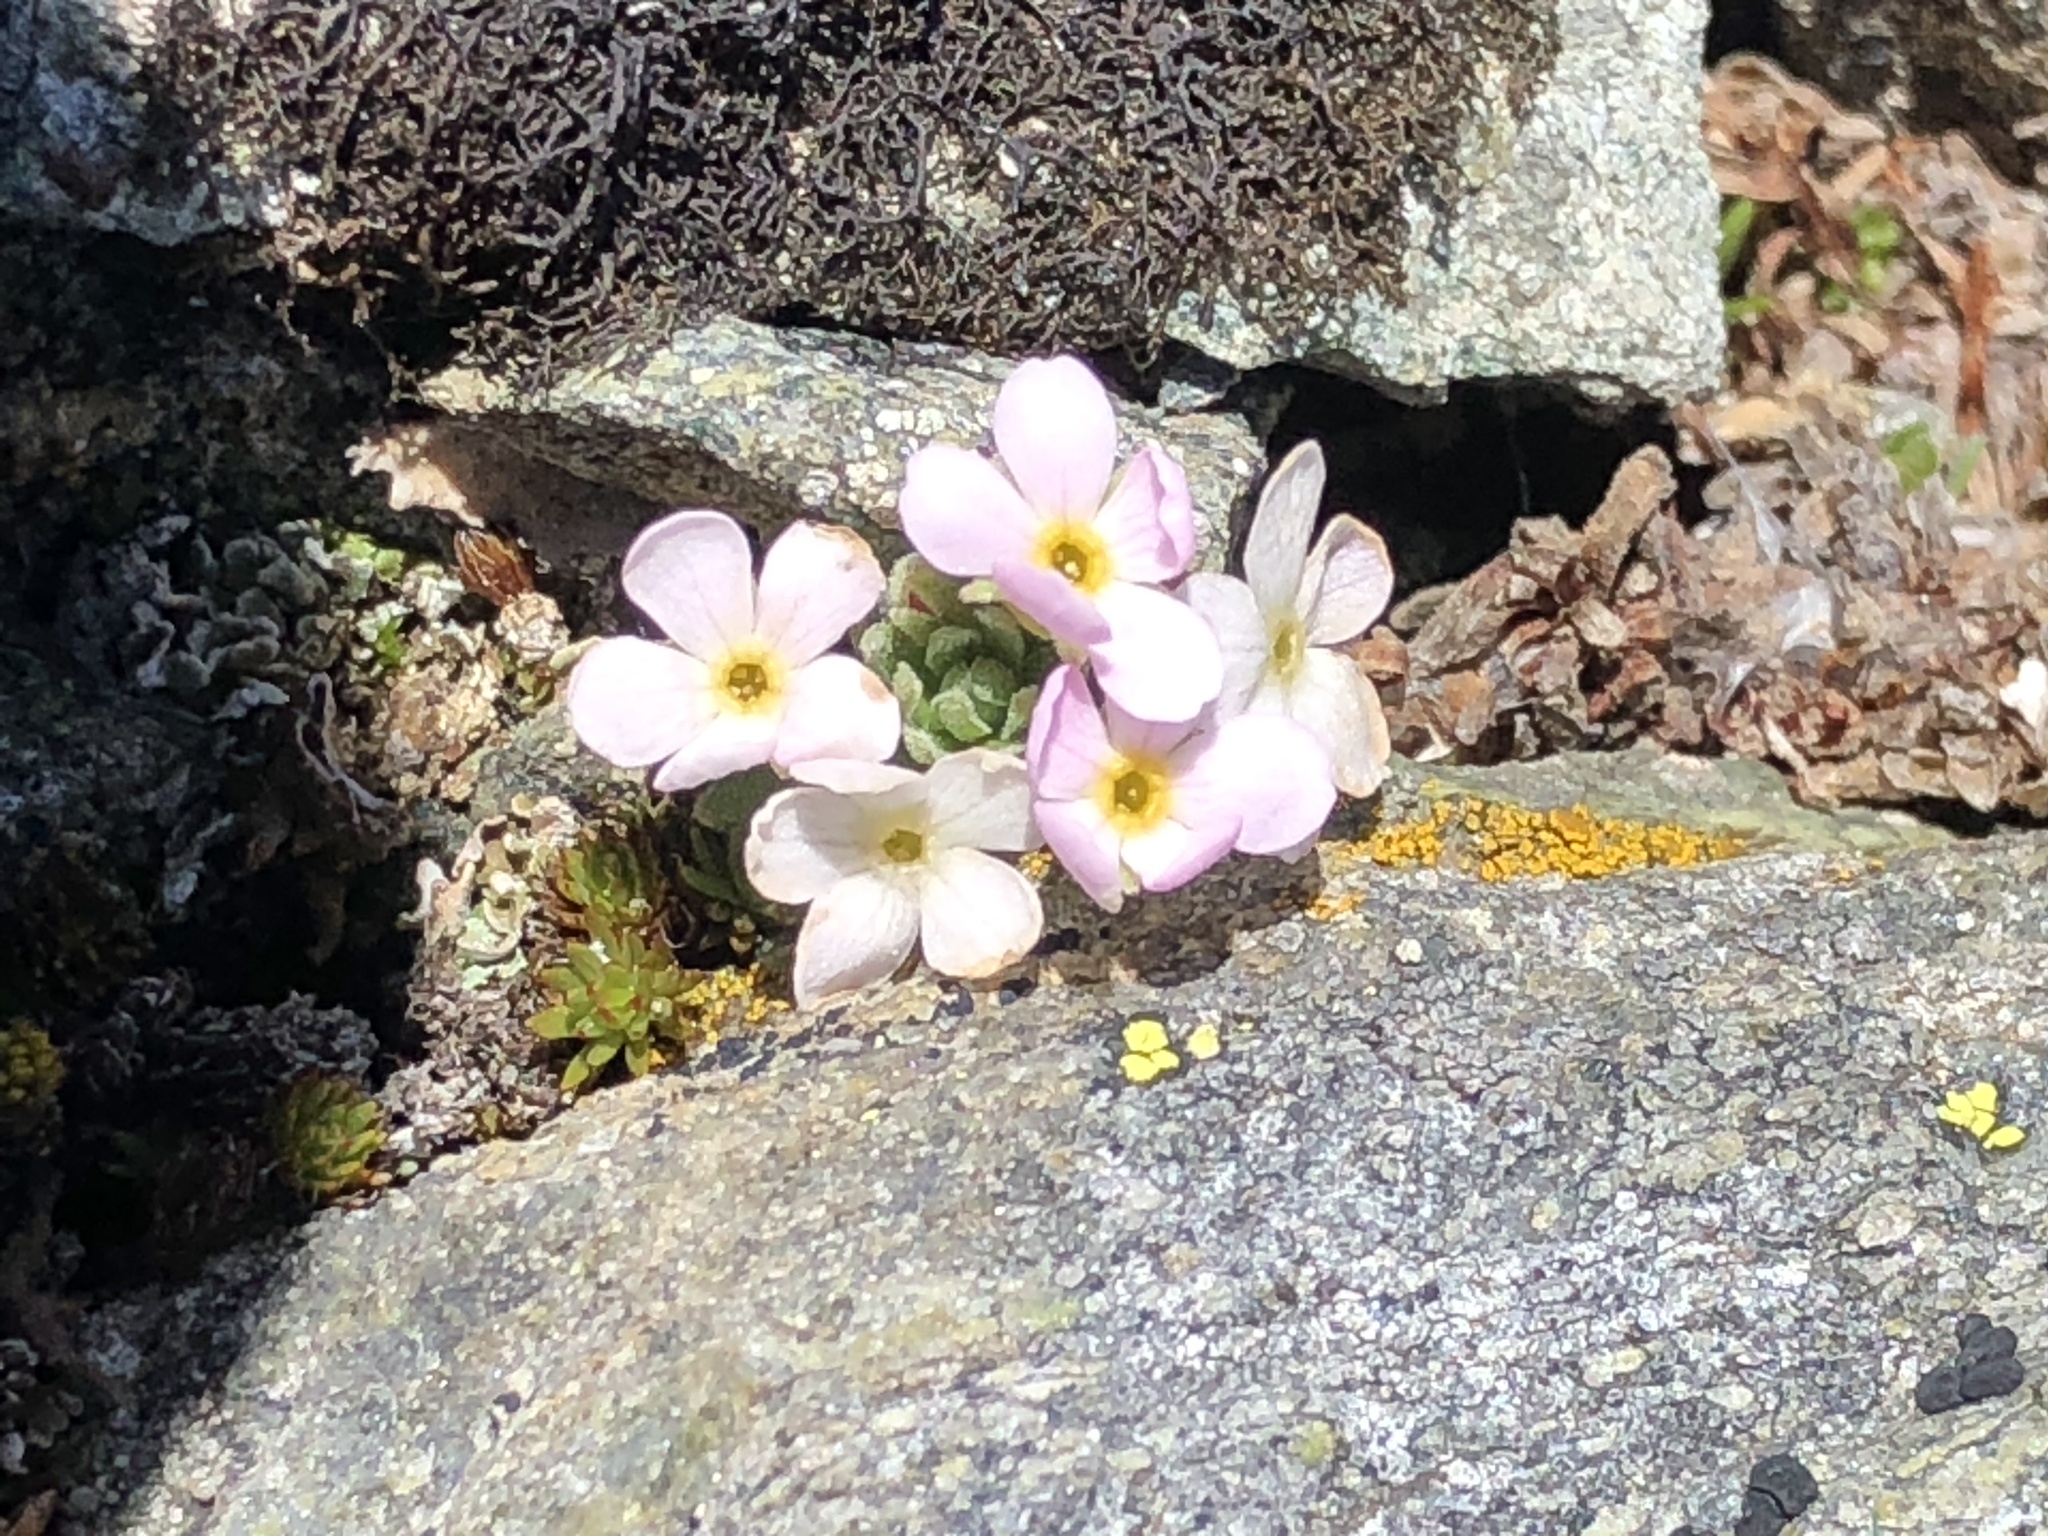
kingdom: Plantae
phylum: Tracheophyta
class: Magnoliopsida
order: Ericales
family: Primulaceae
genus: Androsace
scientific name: Androsace alpina
